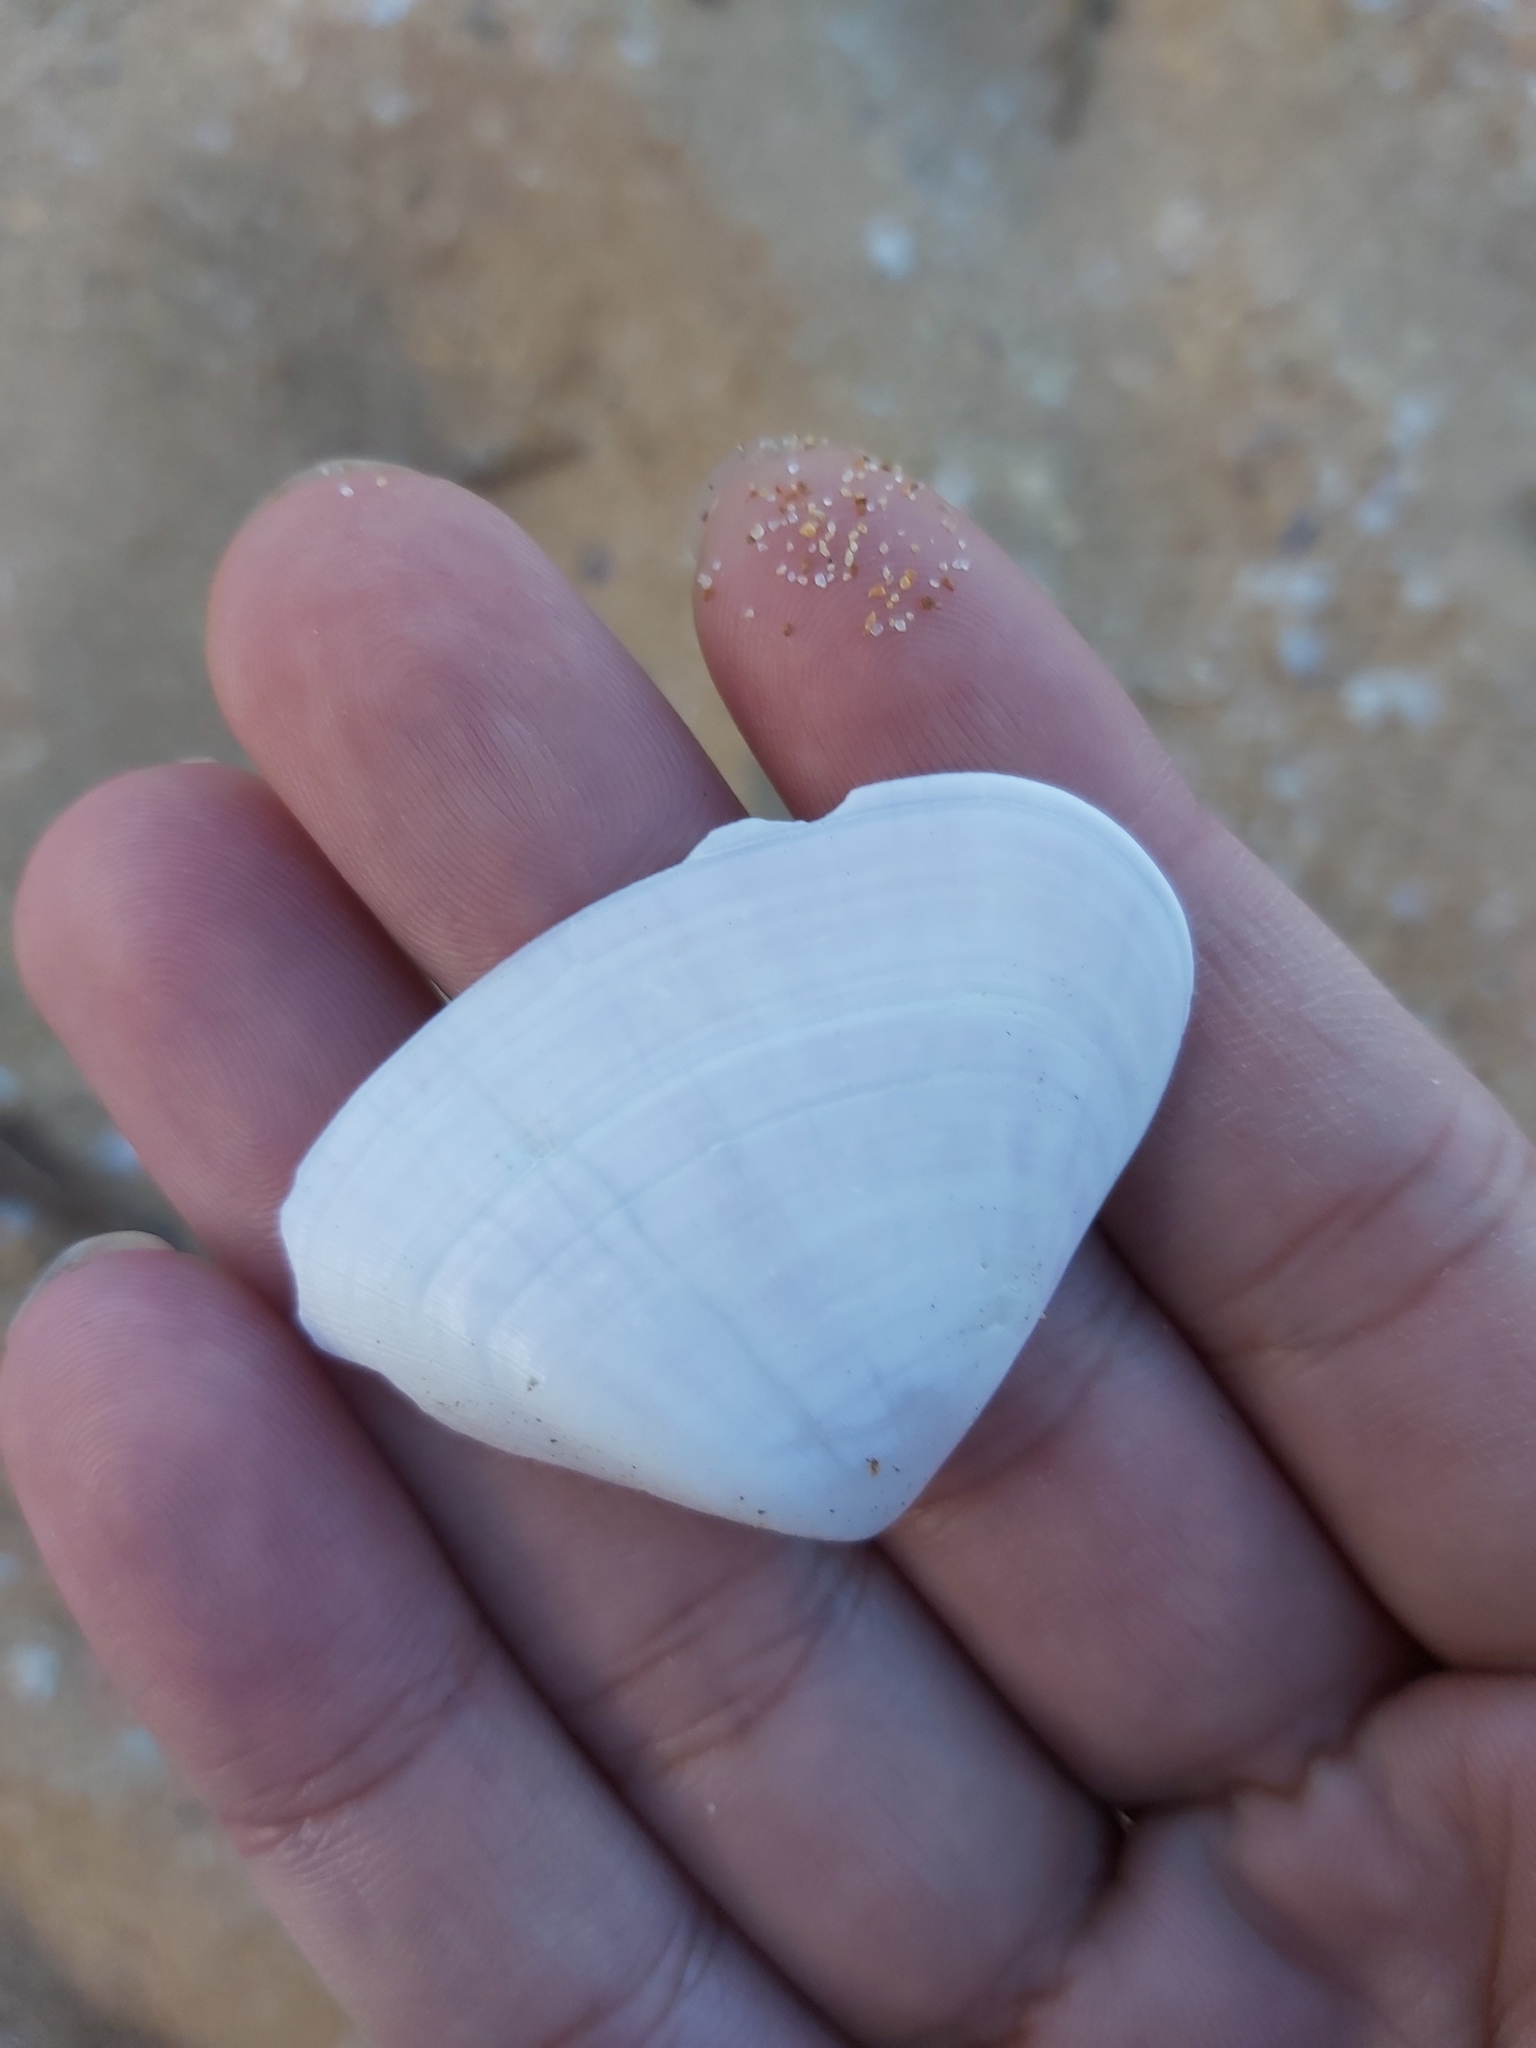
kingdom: Animalia
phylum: Mollusca
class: Bivalvia
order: Cardiida
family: Donacidae
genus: Latona
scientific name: Latona deltoides
